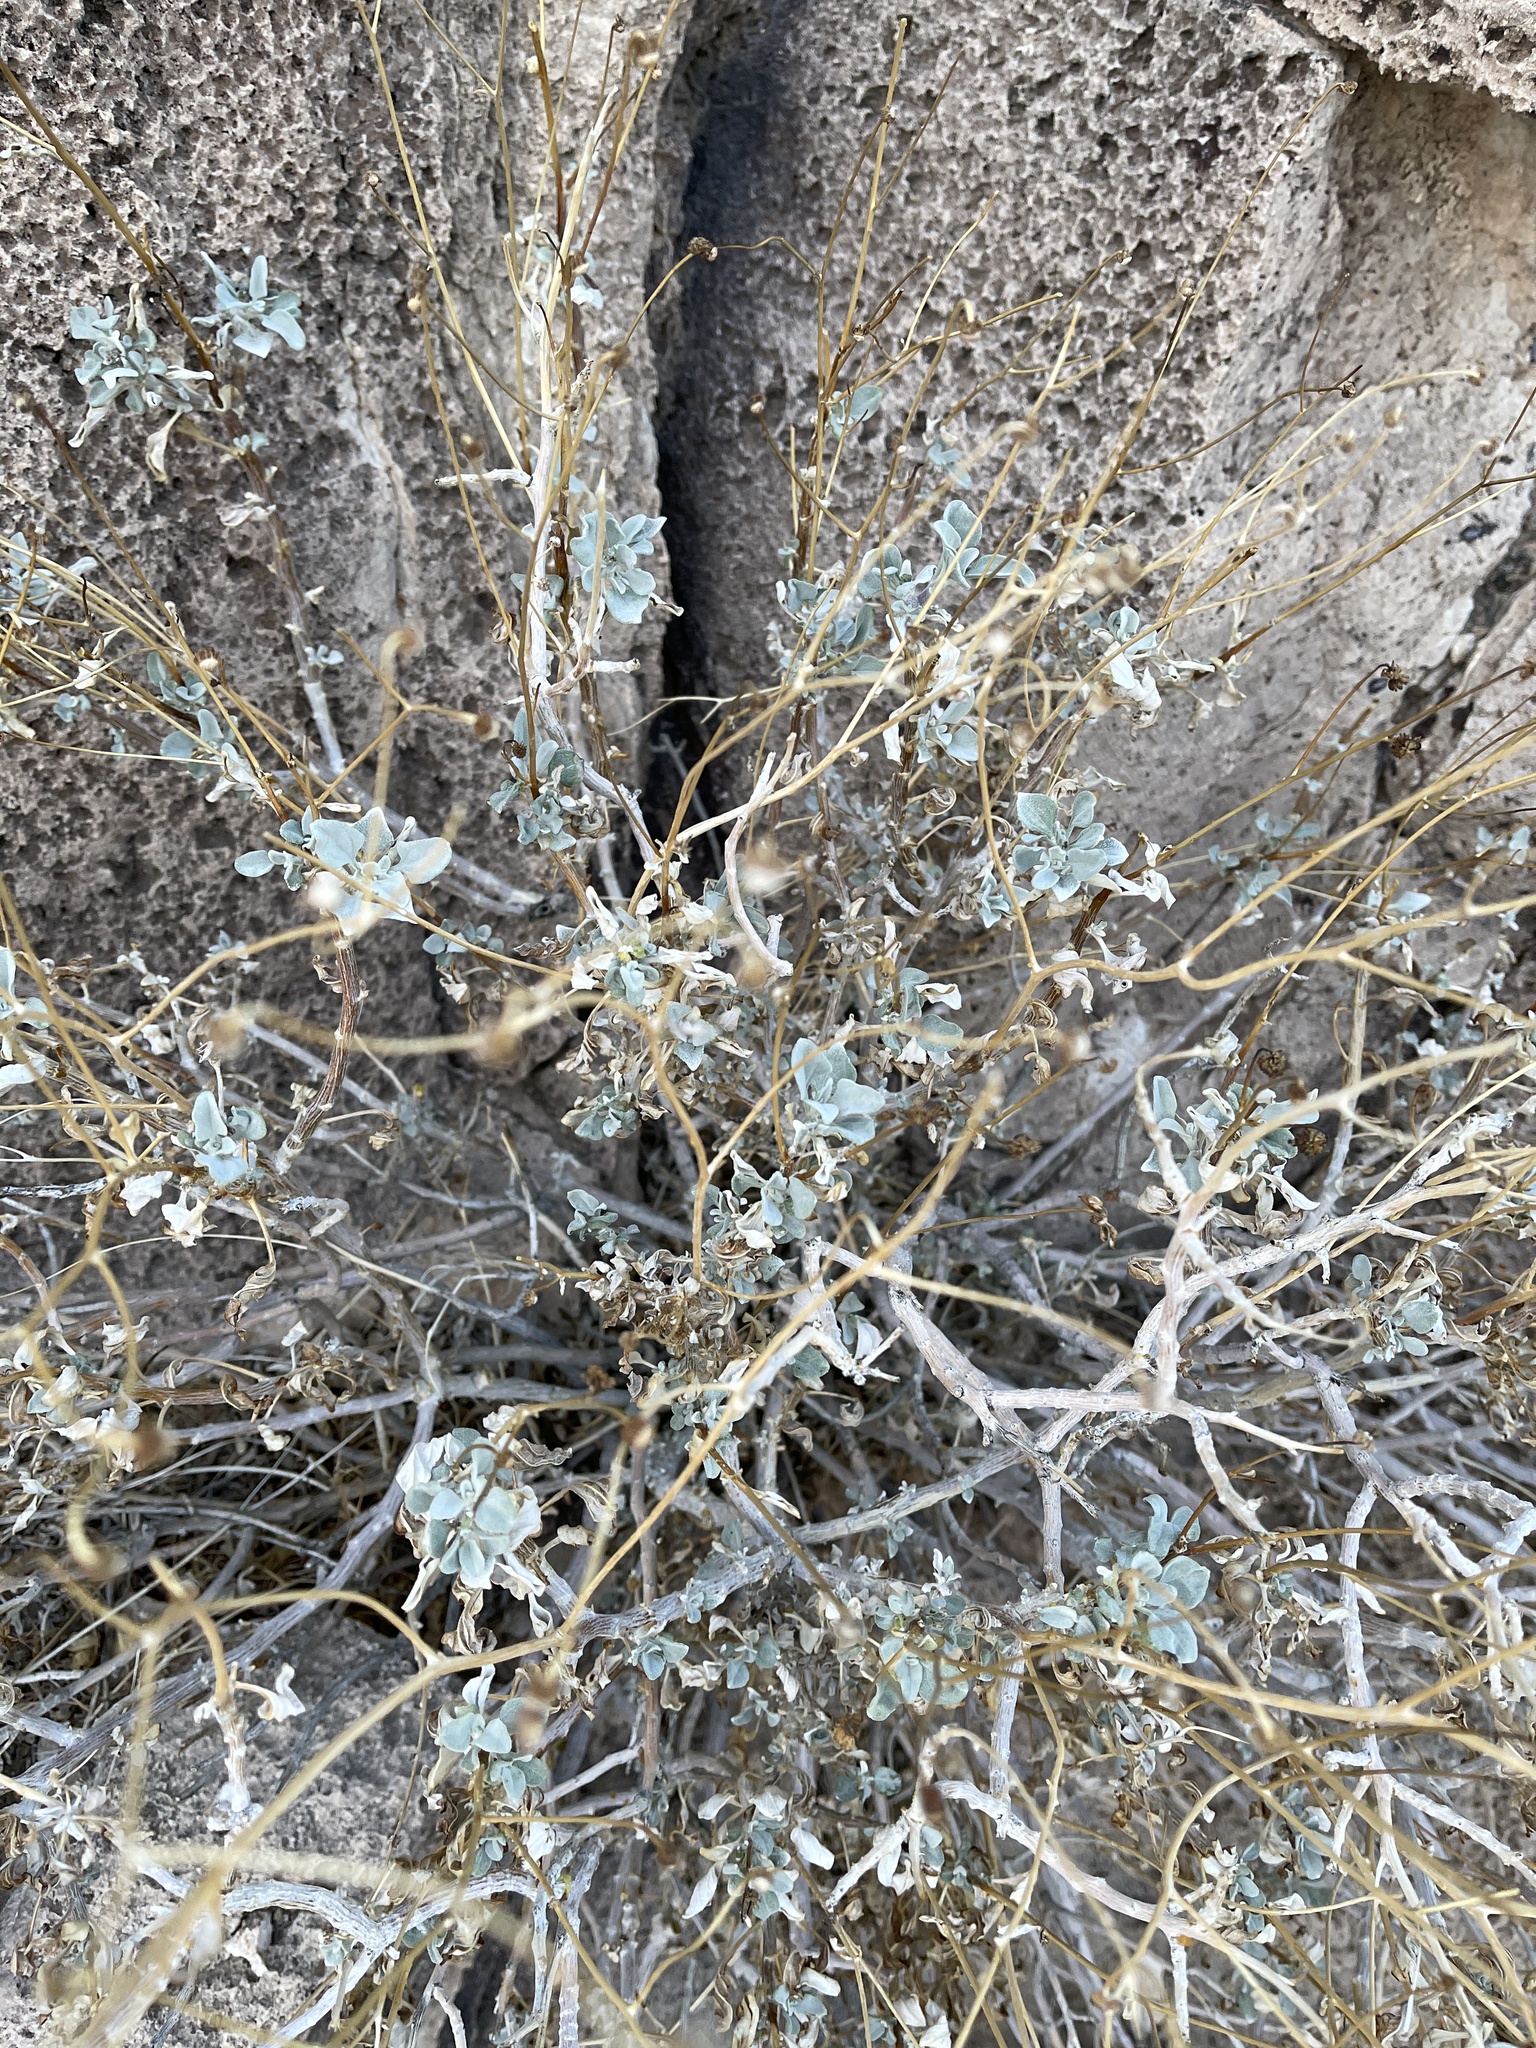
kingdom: Plantae
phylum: Tracheophyta
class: Magnoliopsida
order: Asterales
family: Asteraceae
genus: Encelia
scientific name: Encelia farinosa
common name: Brittlebush
